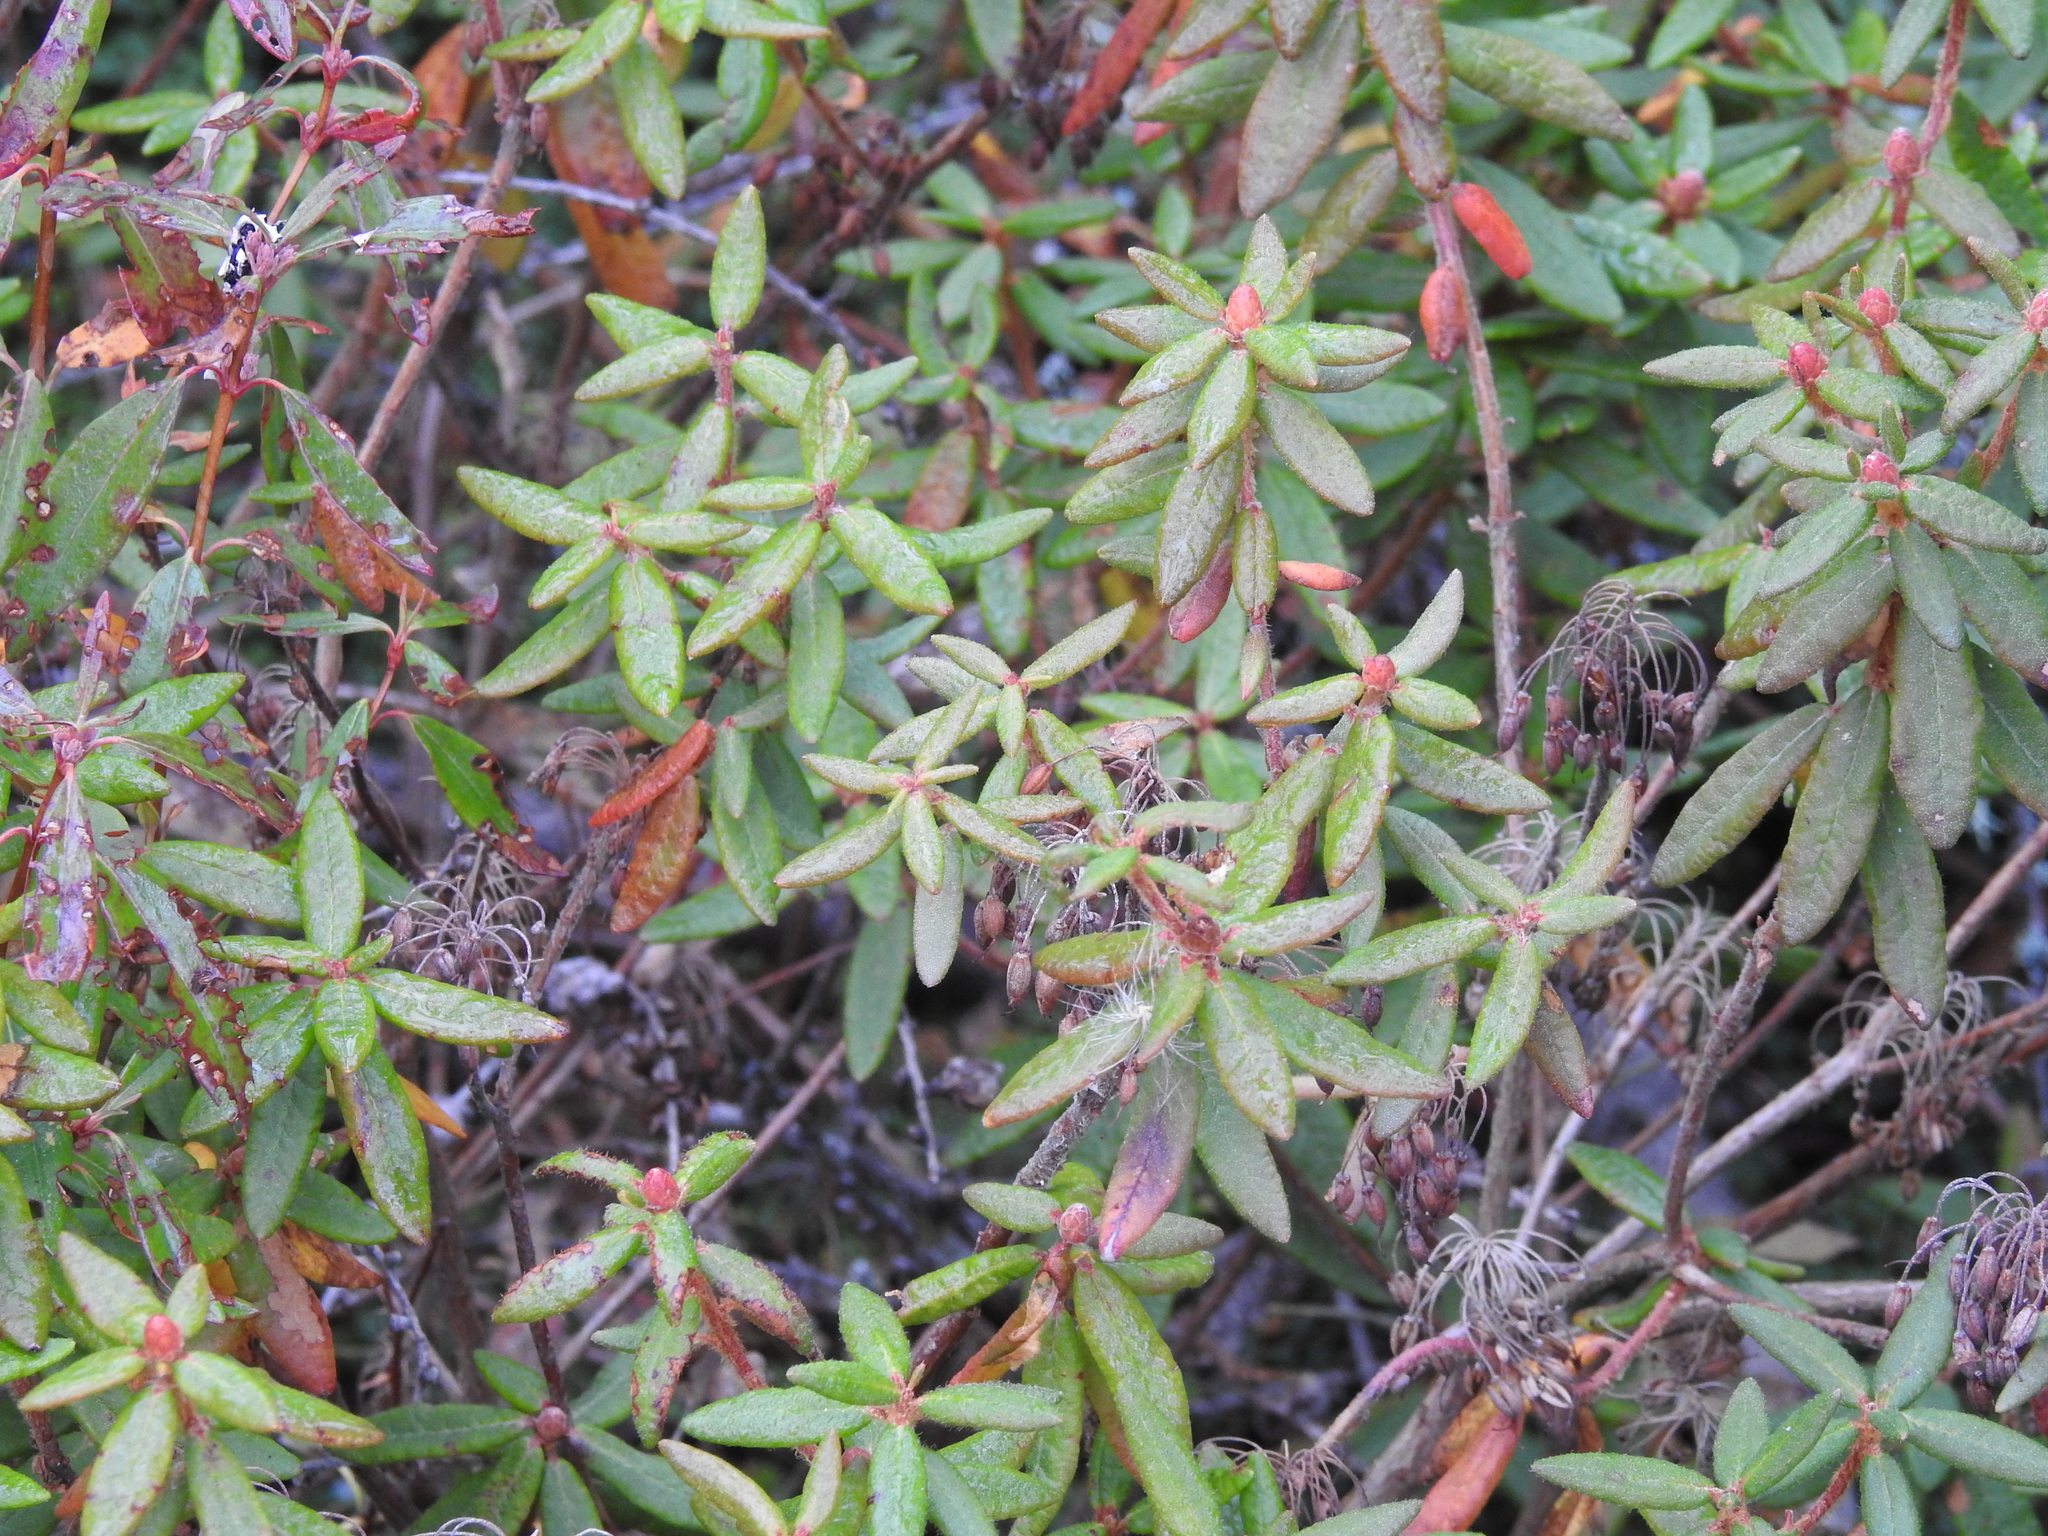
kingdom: Plantae
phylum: Tracheophyta
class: Magnoliopsida
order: Ericales
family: Ericaceae
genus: Rhododendron
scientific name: Rhododendron groenlandicum
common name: Bog labrador tea
